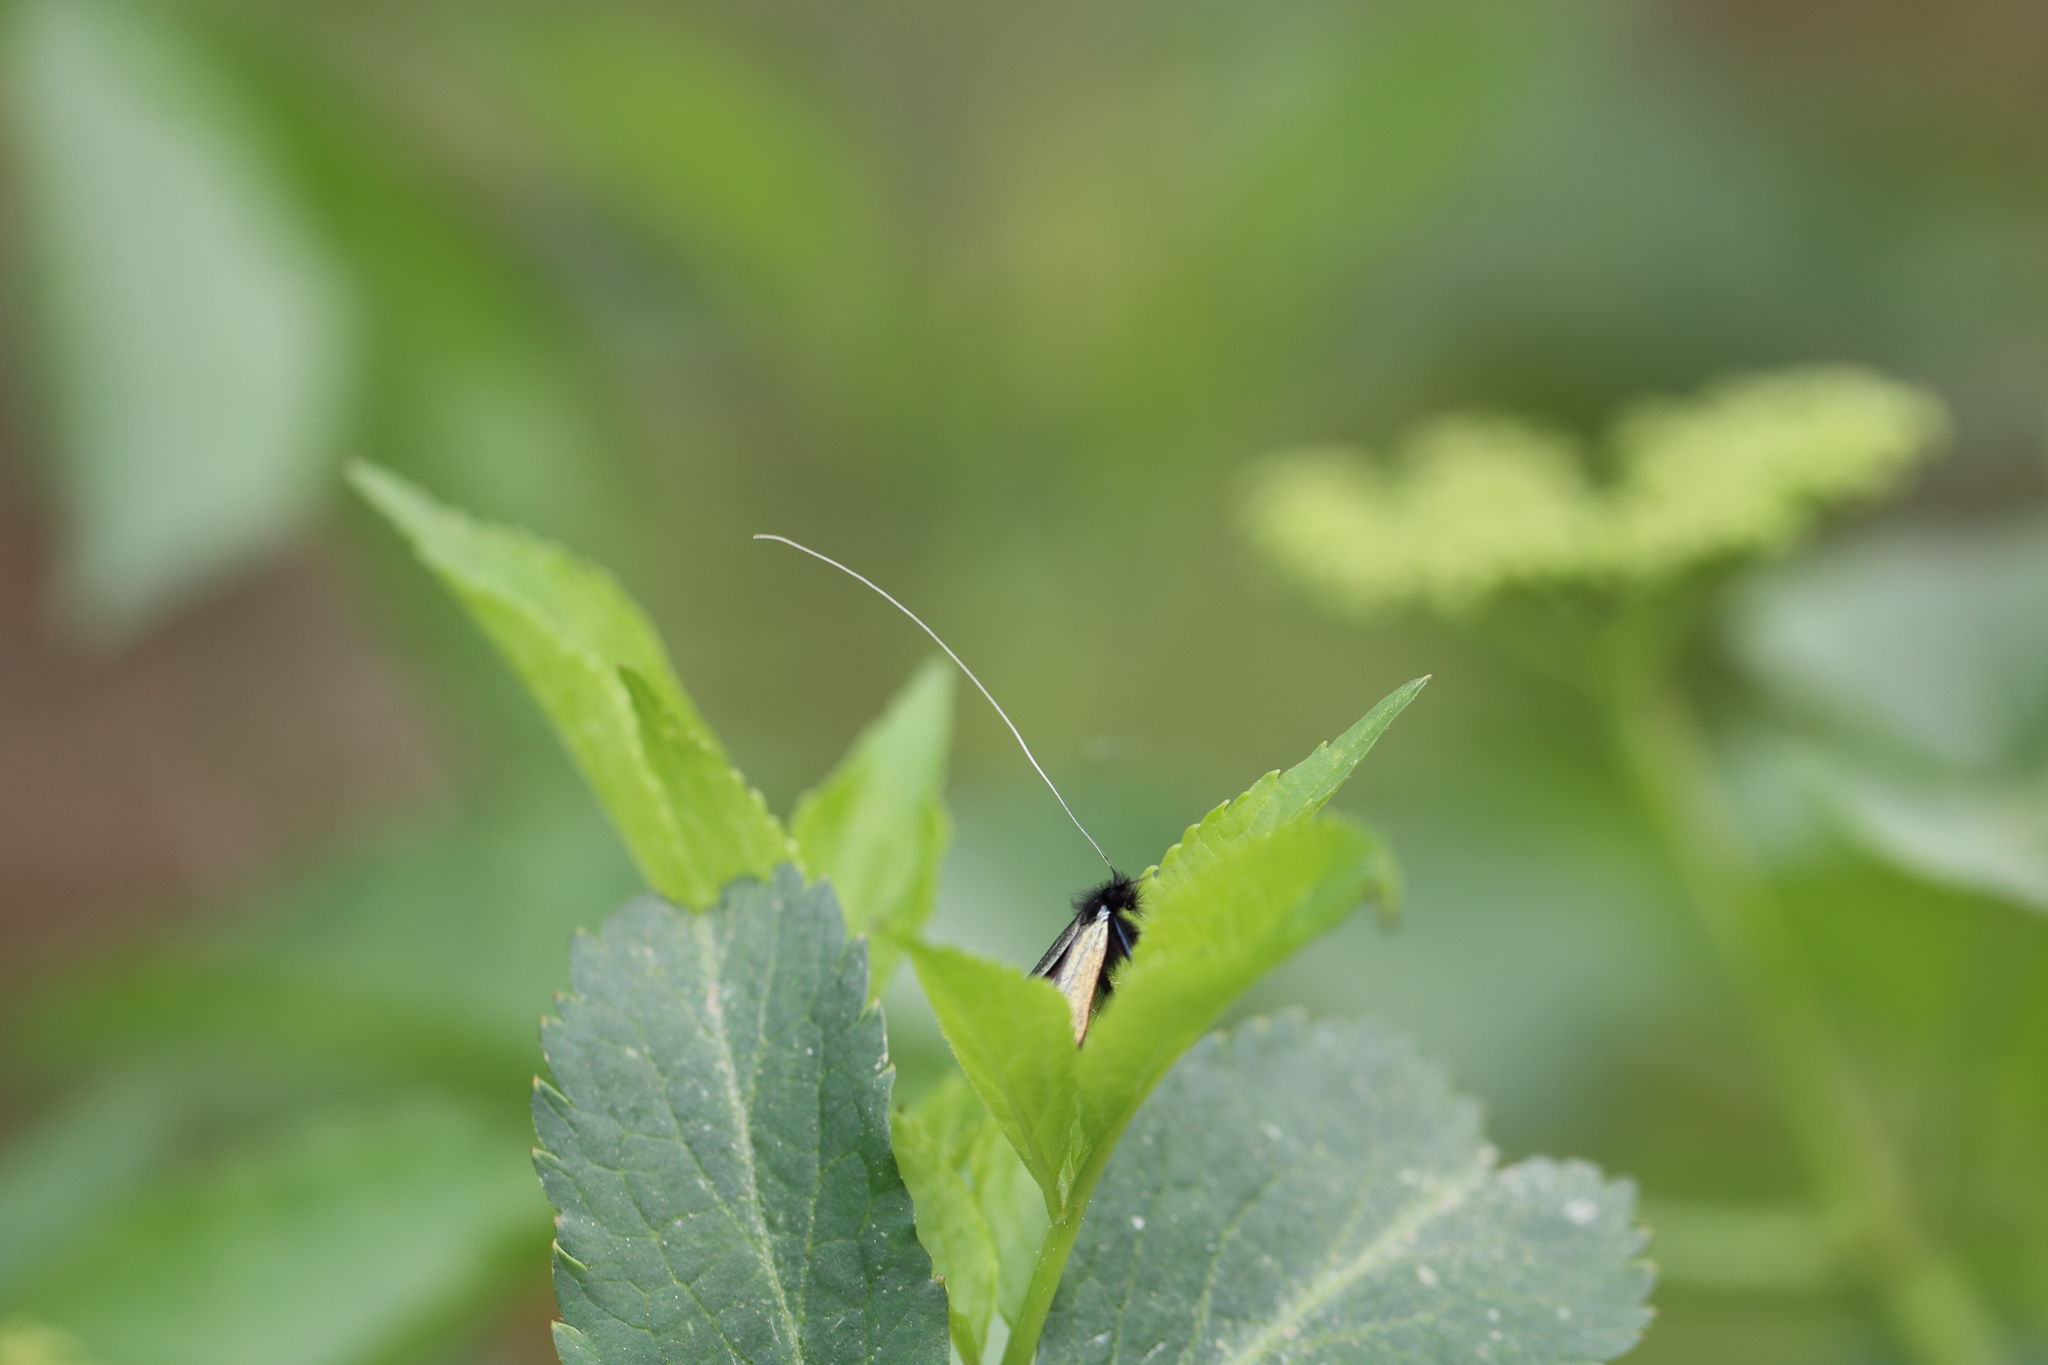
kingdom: Animalia
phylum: Arthropoda
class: Insecta
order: Lepidoptera
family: Adelidae
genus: Adela
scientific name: Adela viridella
